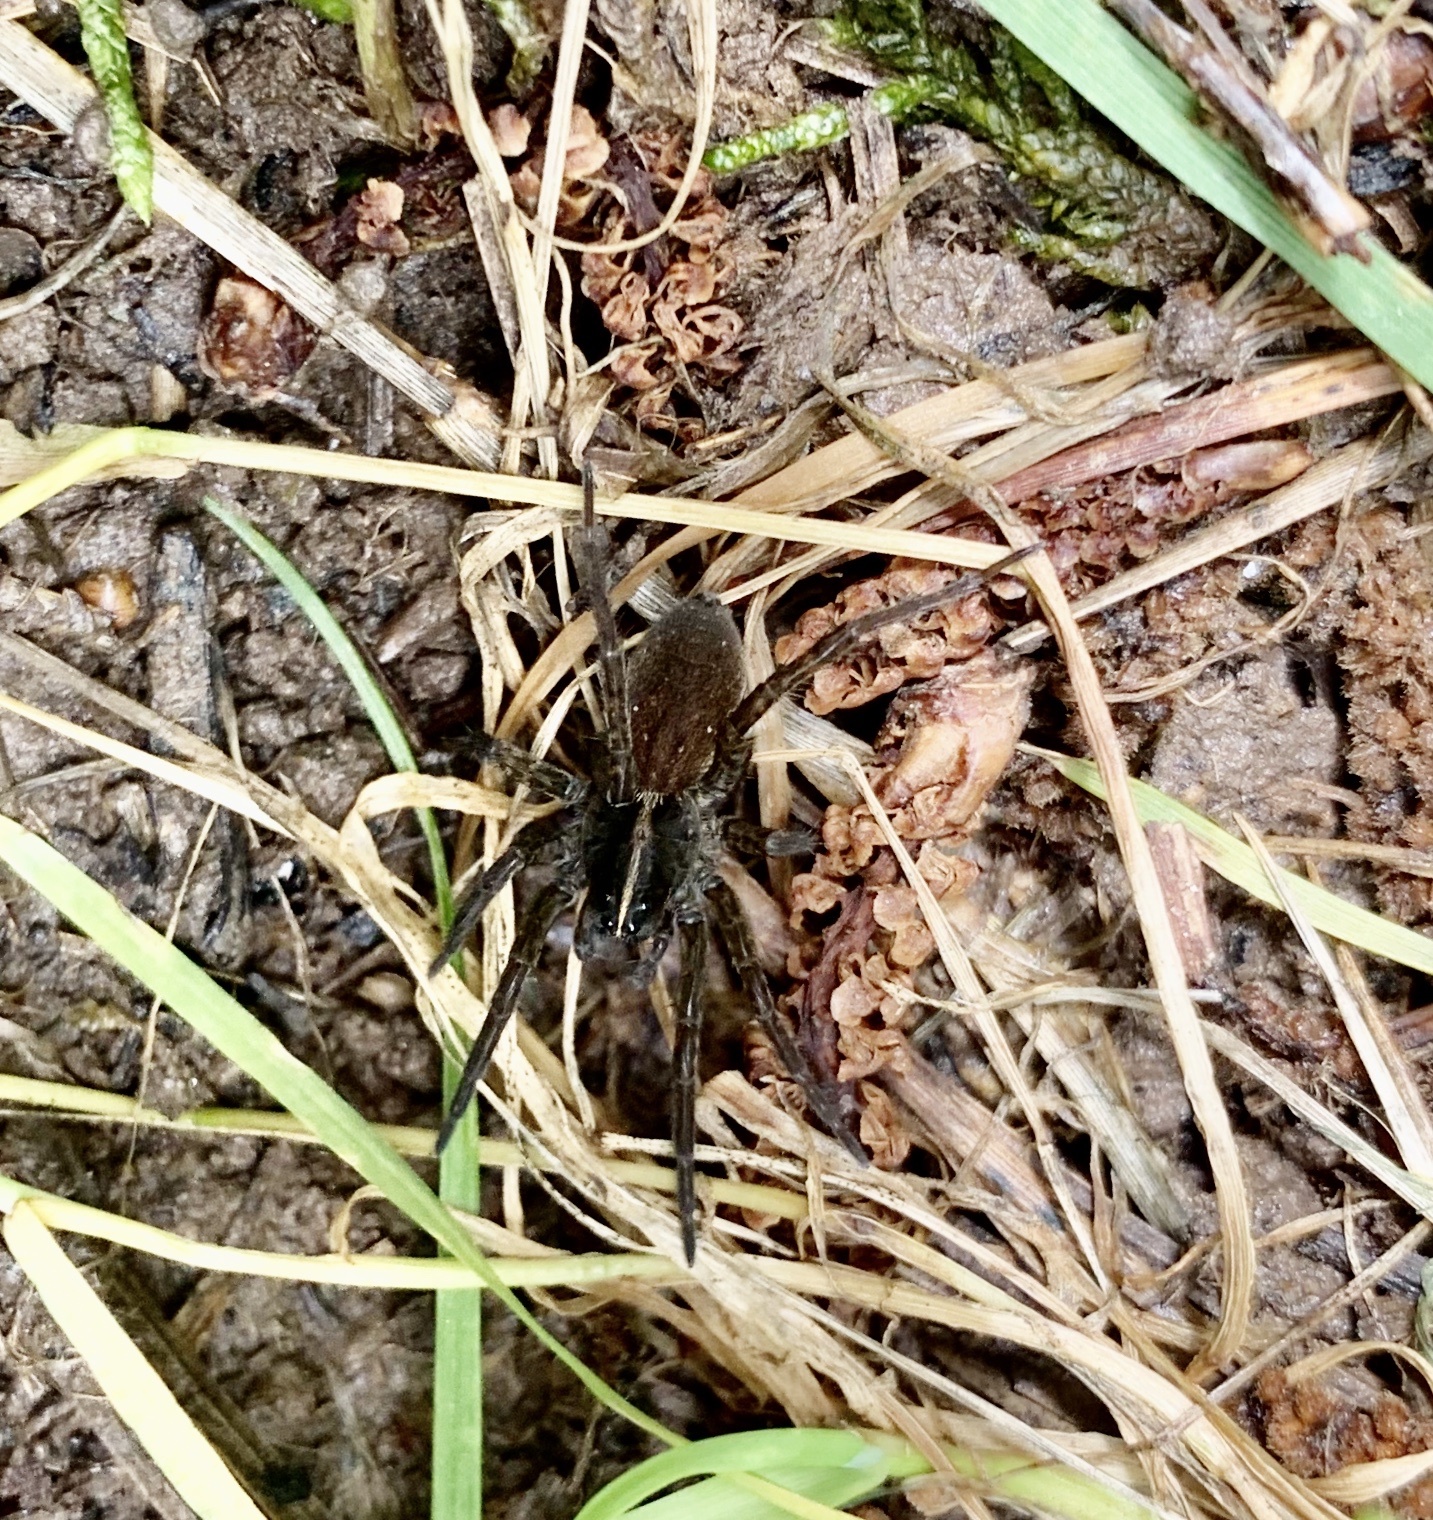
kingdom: Animalia
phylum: Arthropoda
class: Arachnida
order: Araneae
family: Lycosidae
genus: Tigrosa
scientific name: Tigrosa helluo
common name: Wetland giant wolf spider
